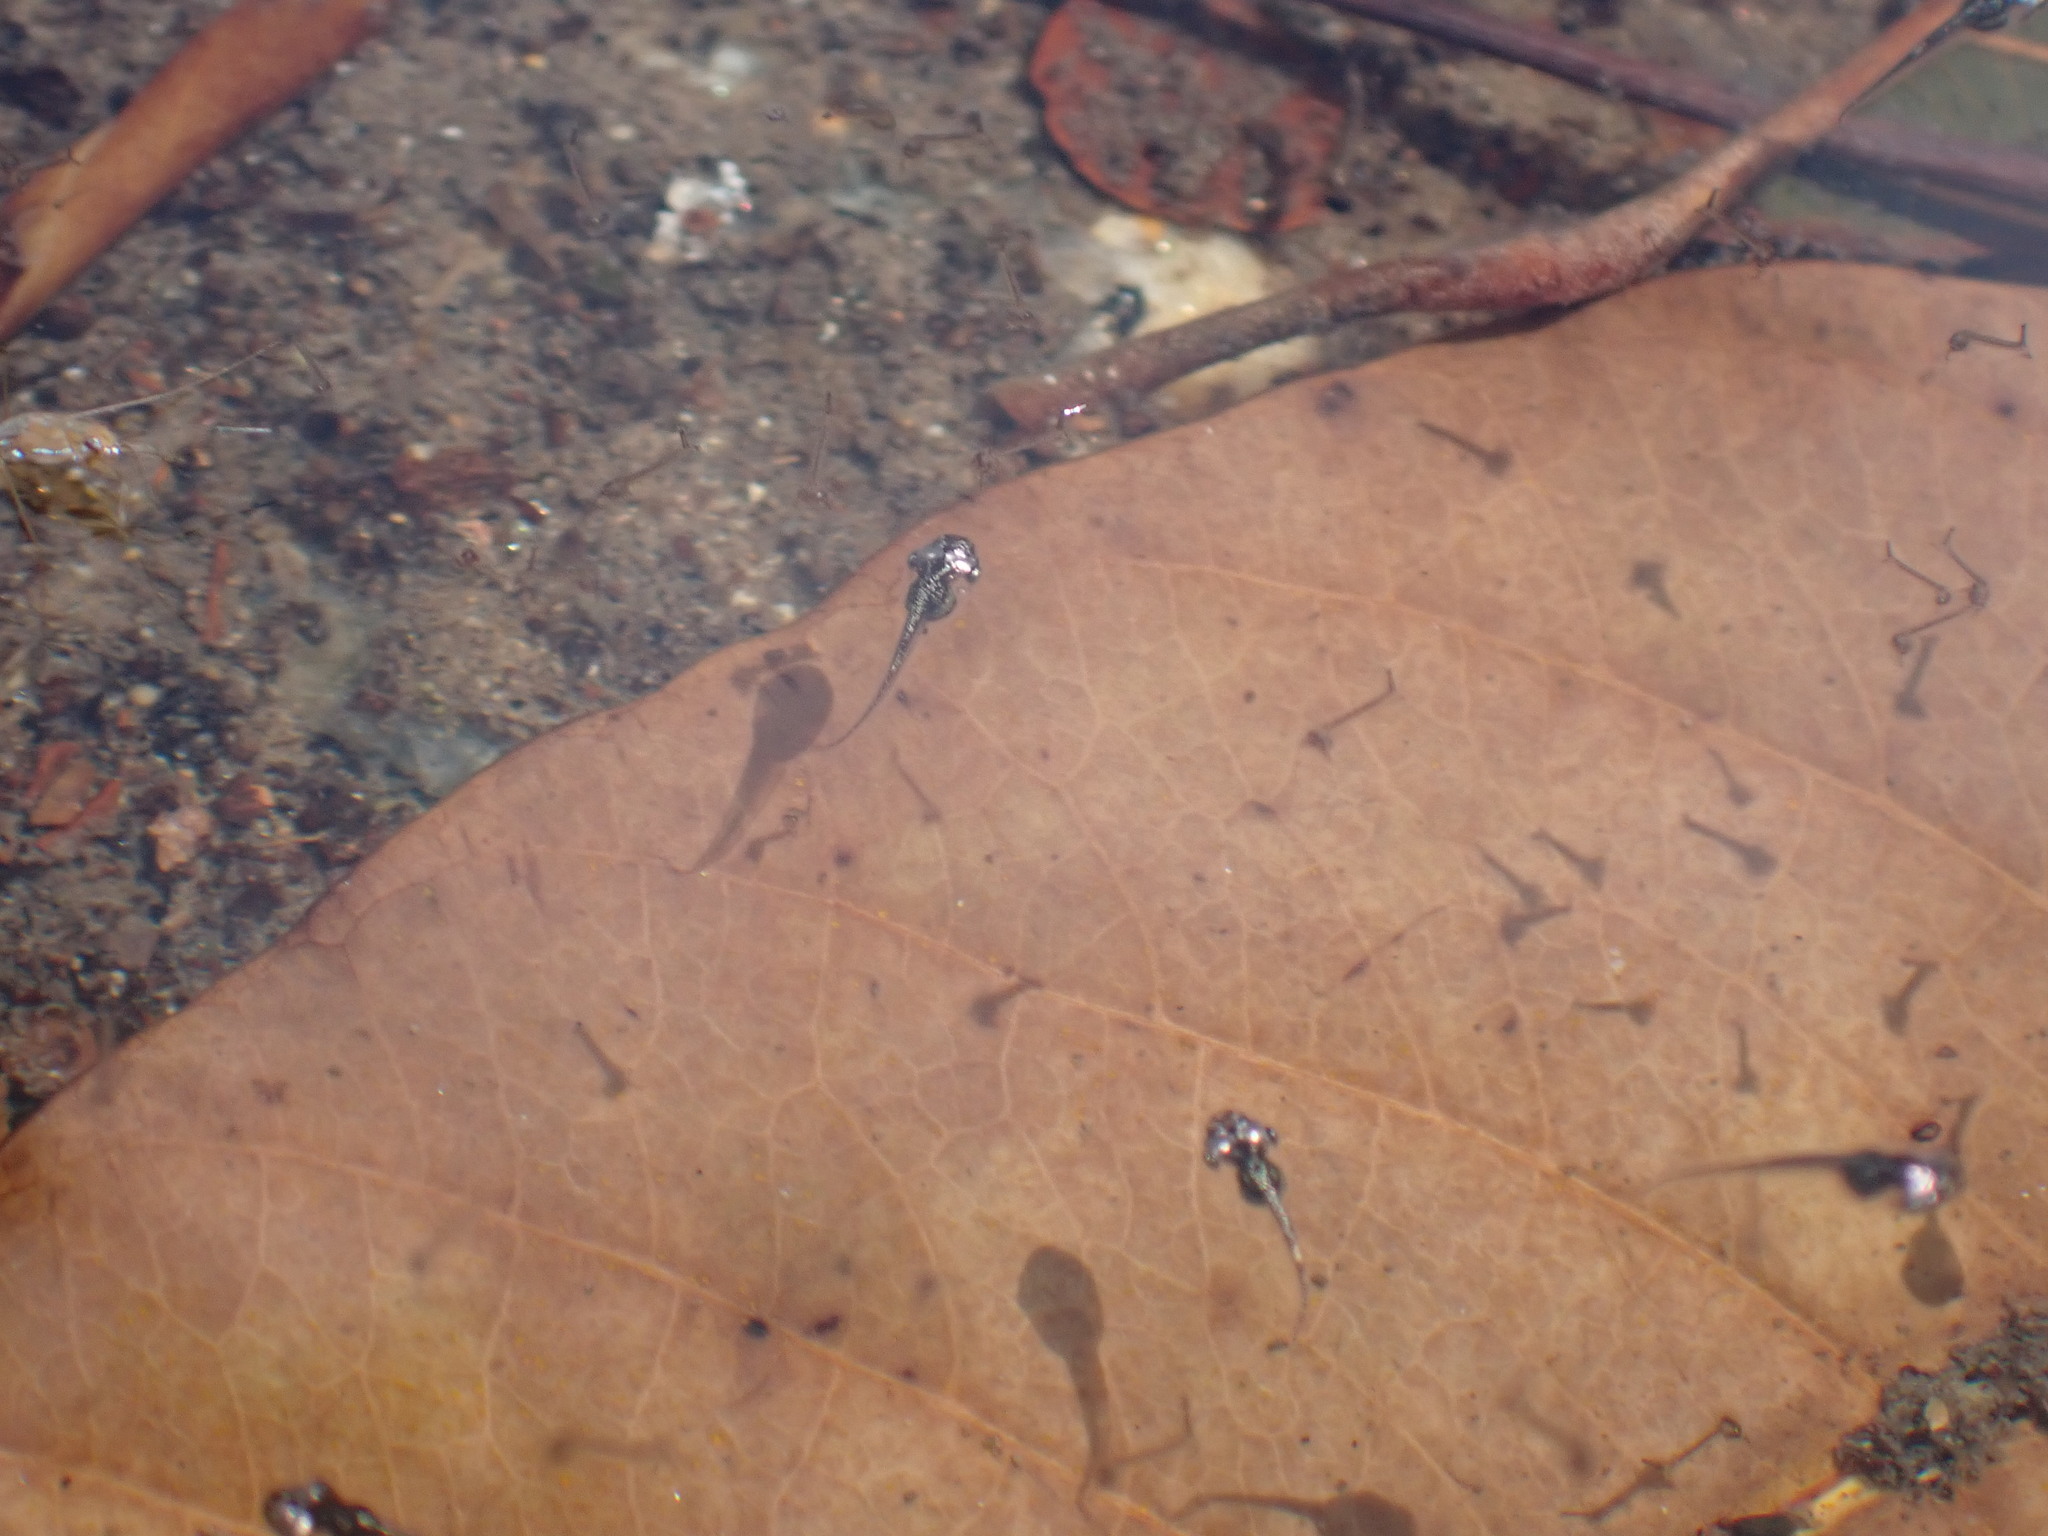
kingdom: Animalia
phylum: Chordata
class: Amphibia
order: Anura
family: Microhylidae
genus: Microhyla
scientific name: Microhyla heymonsi
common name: Taiwan rice frog,dark sided chorus frog
